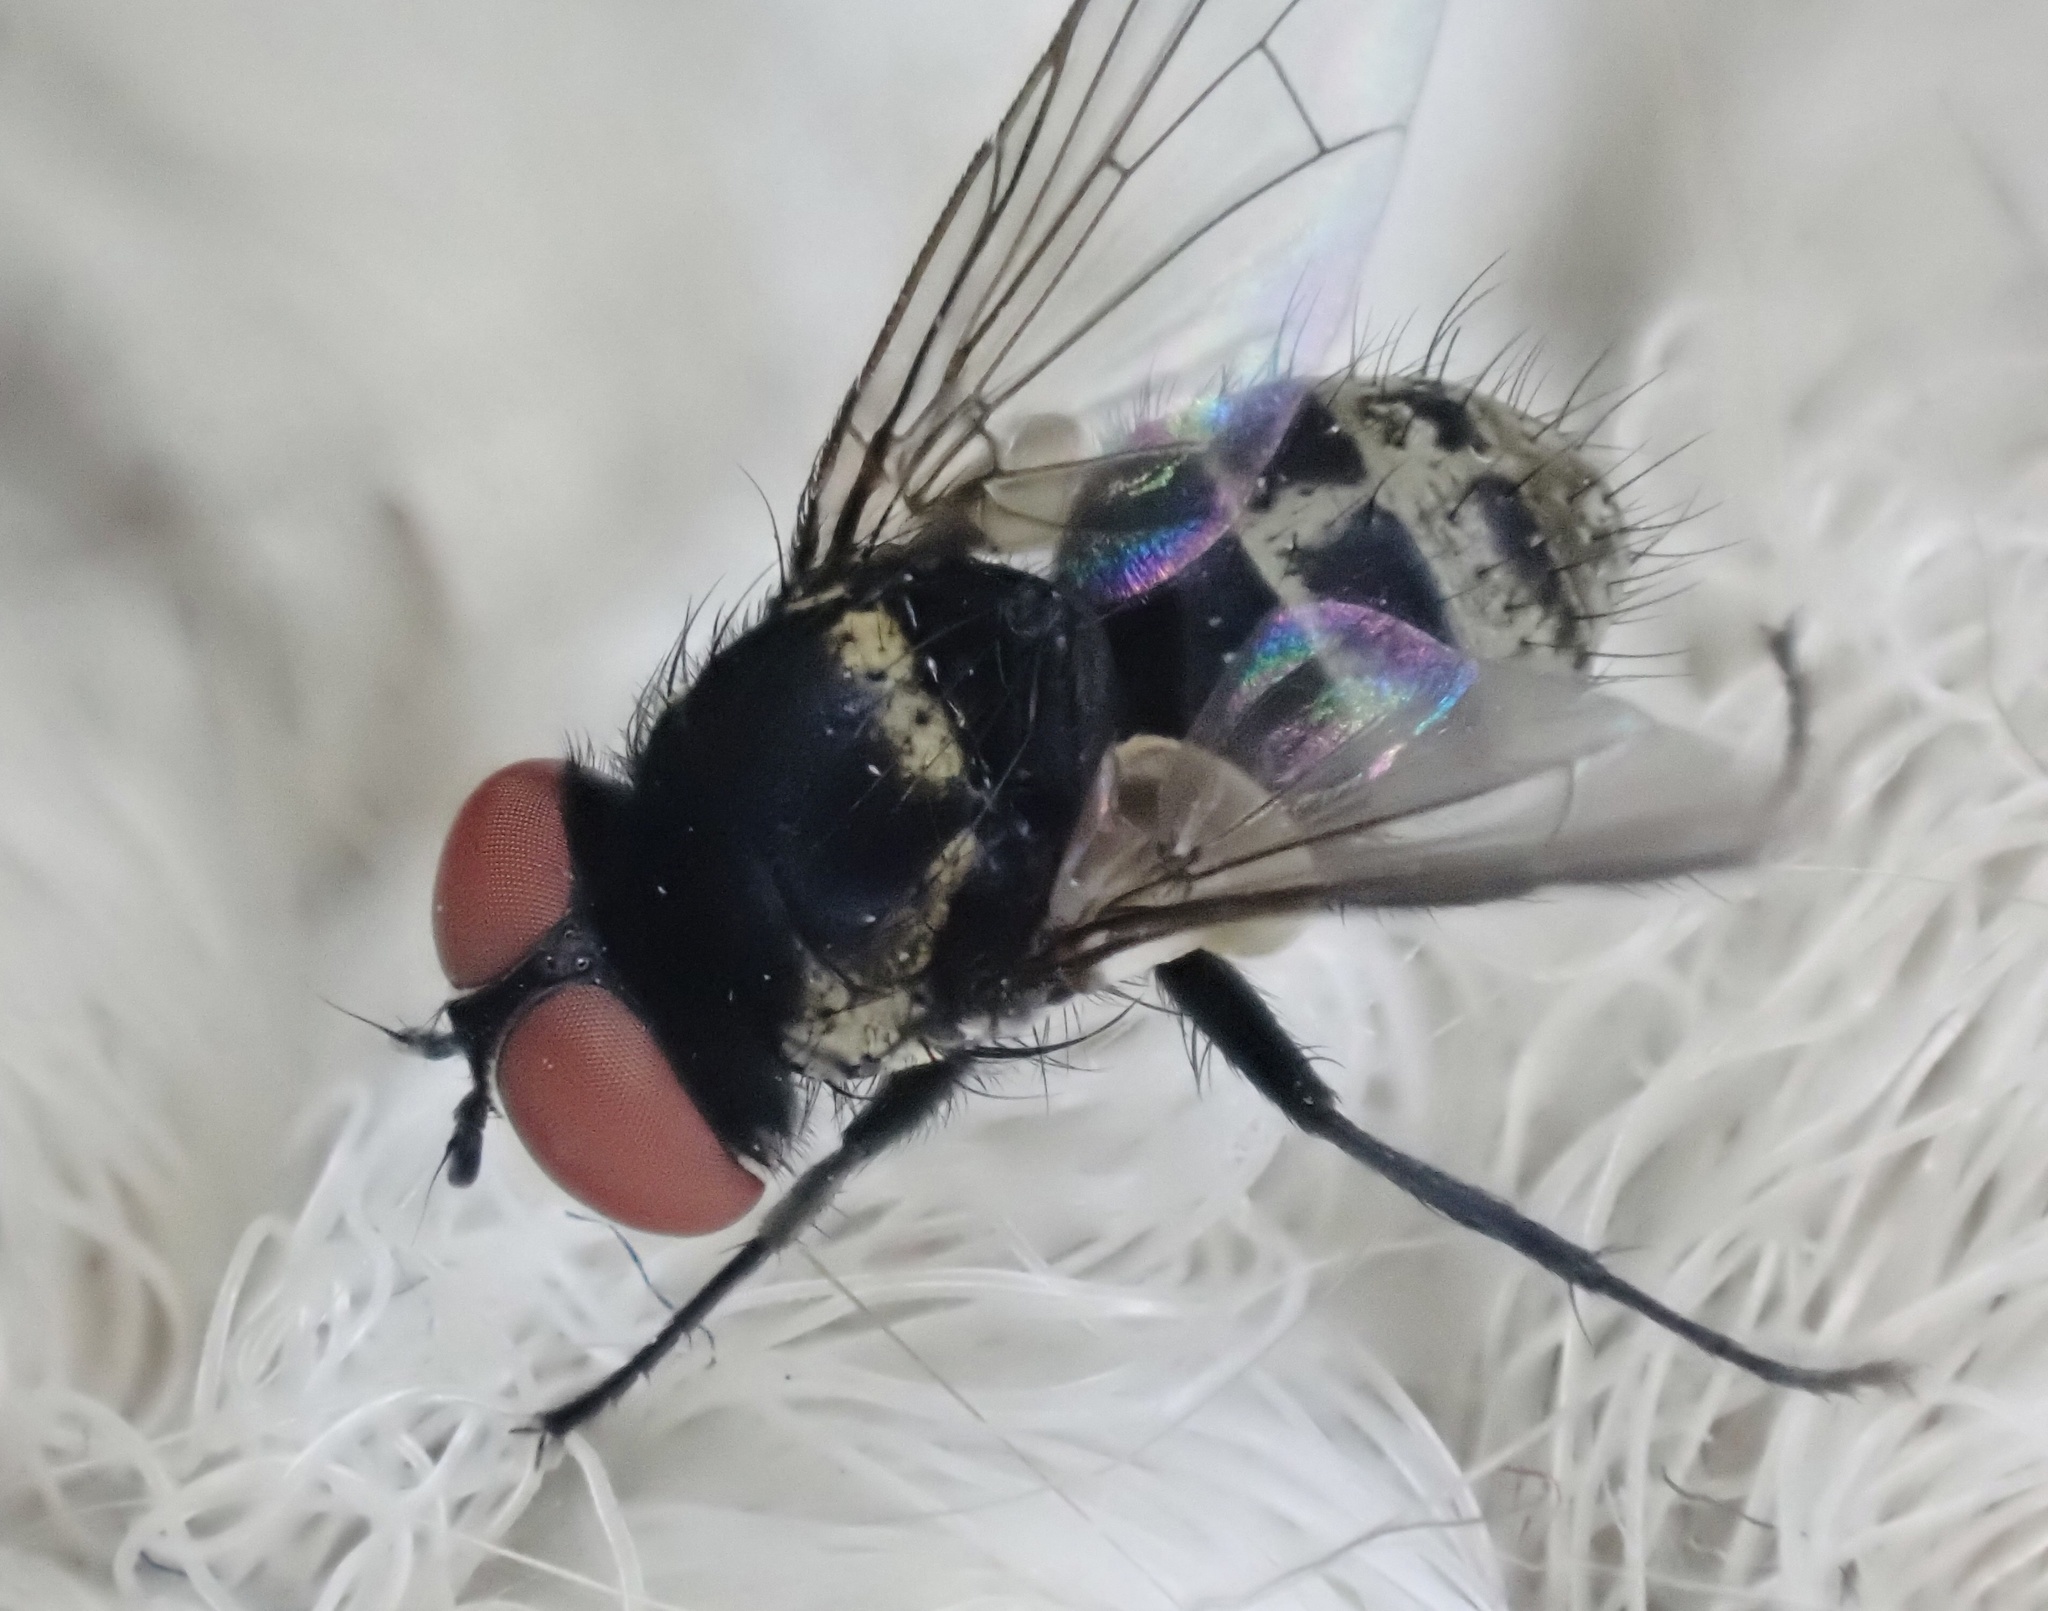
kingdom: Animalia
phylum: Arthropoda
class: Insecta
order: Diptera
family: Tachinidae
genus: Strongygaster
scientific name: Strongygaster triangulifera
